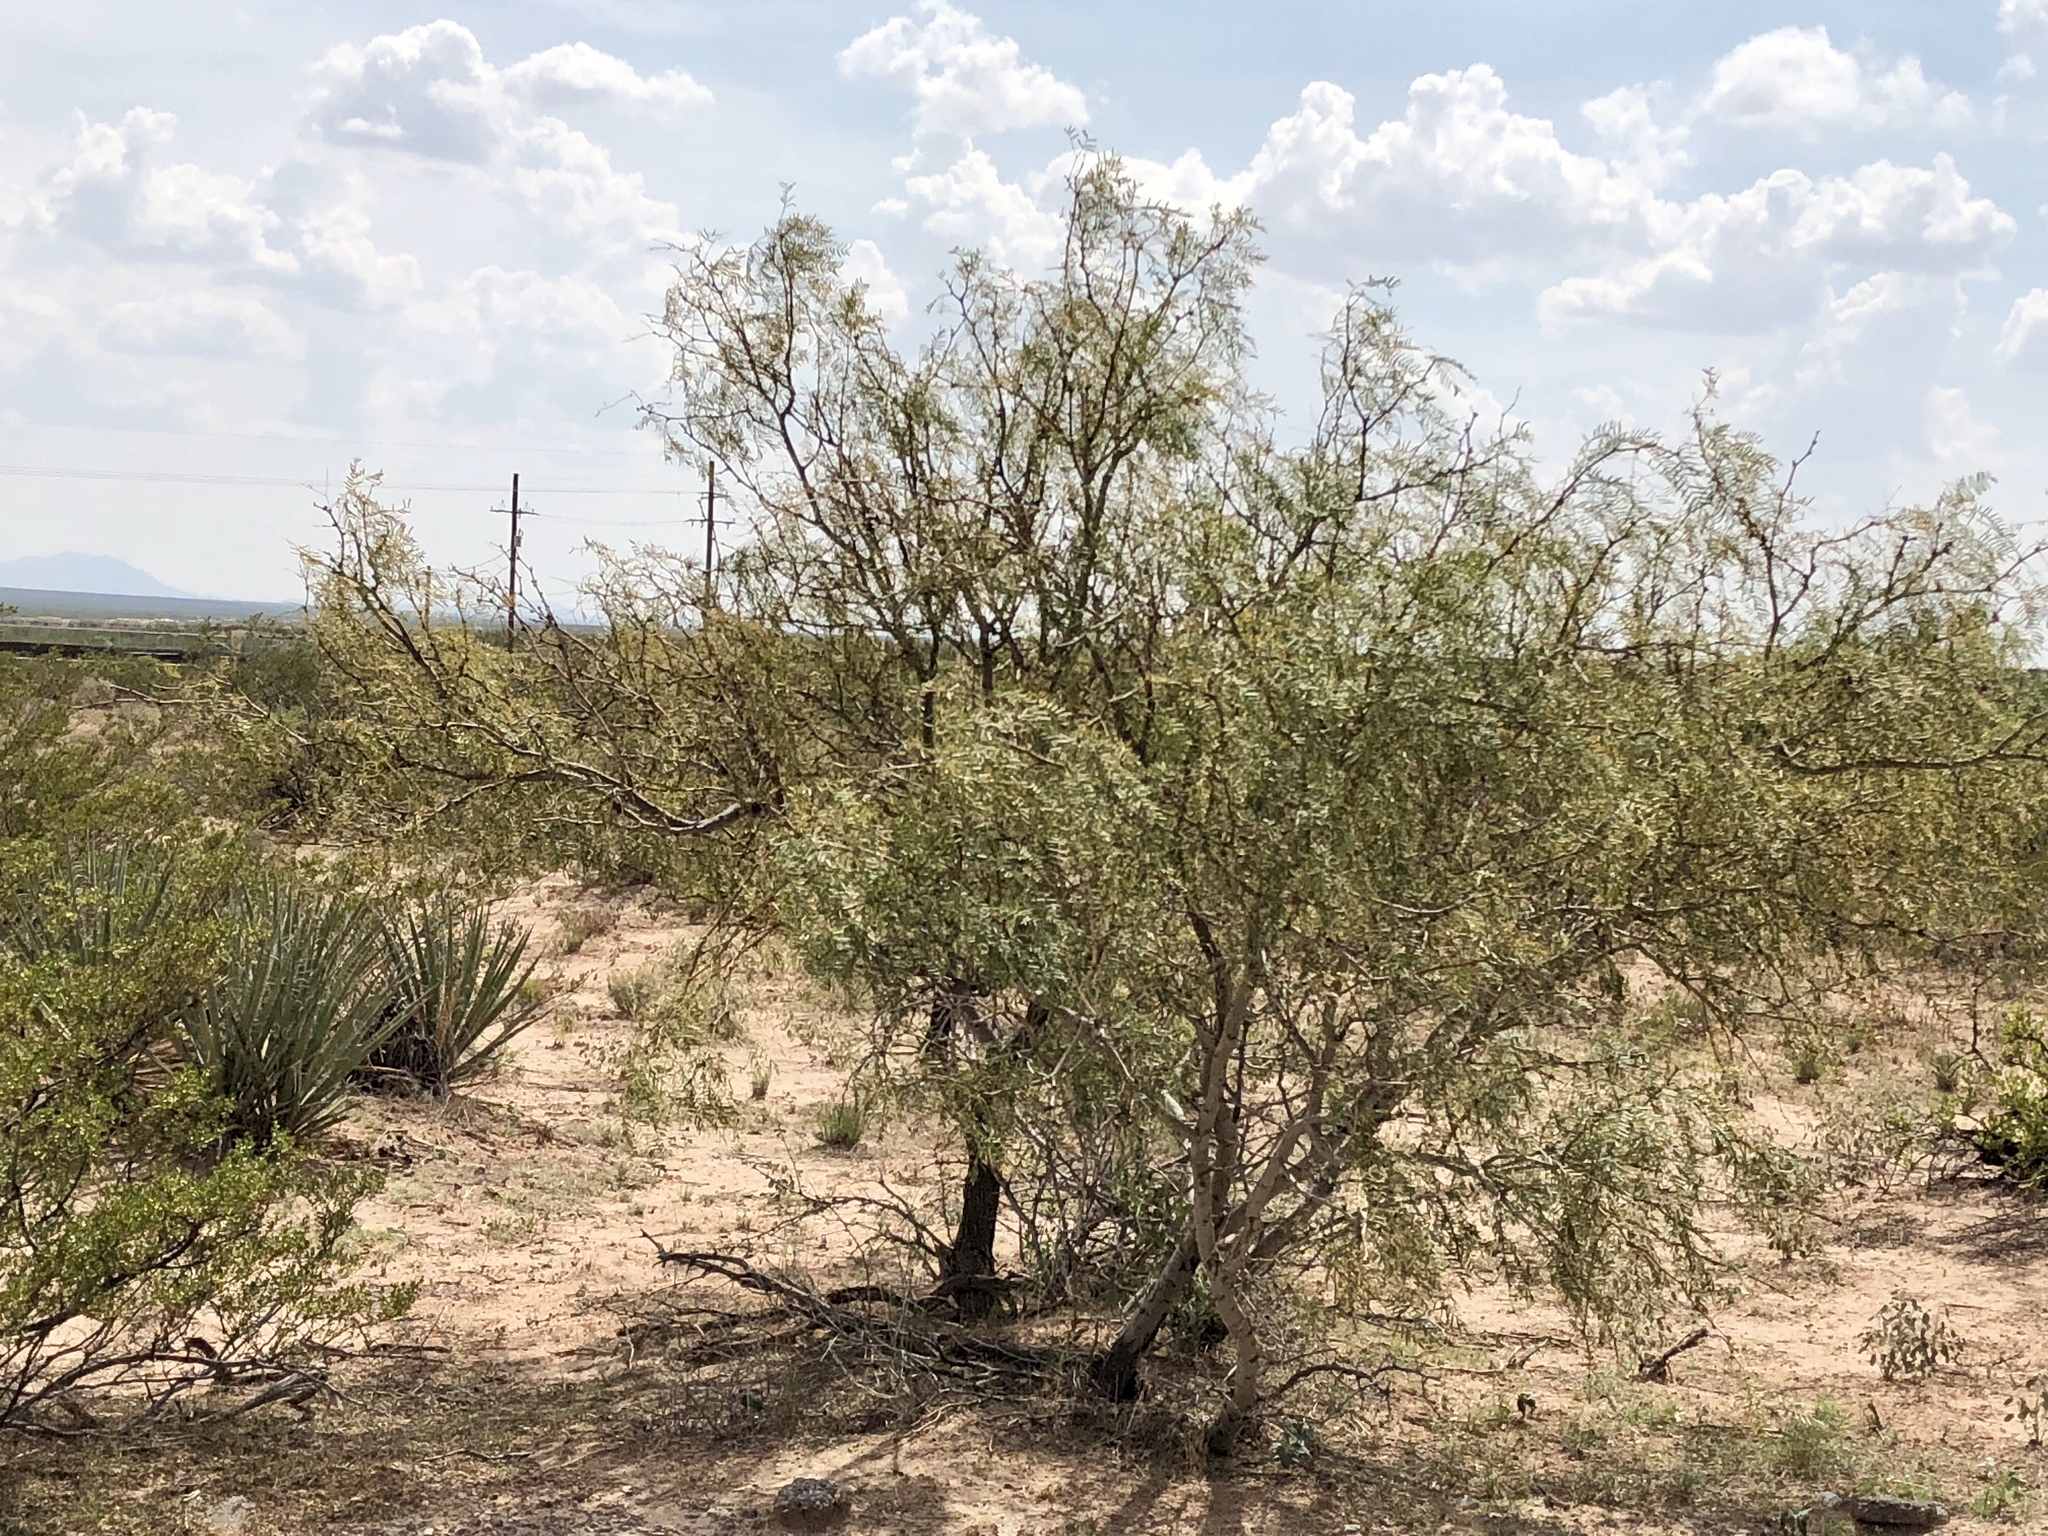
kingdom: Plantae
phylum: Tracheophyta
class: Magnoliopsida
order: Fabales
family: Fabaceae
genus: Prosopis
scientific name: Prosopis glandulosa
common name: Honey mesquite
